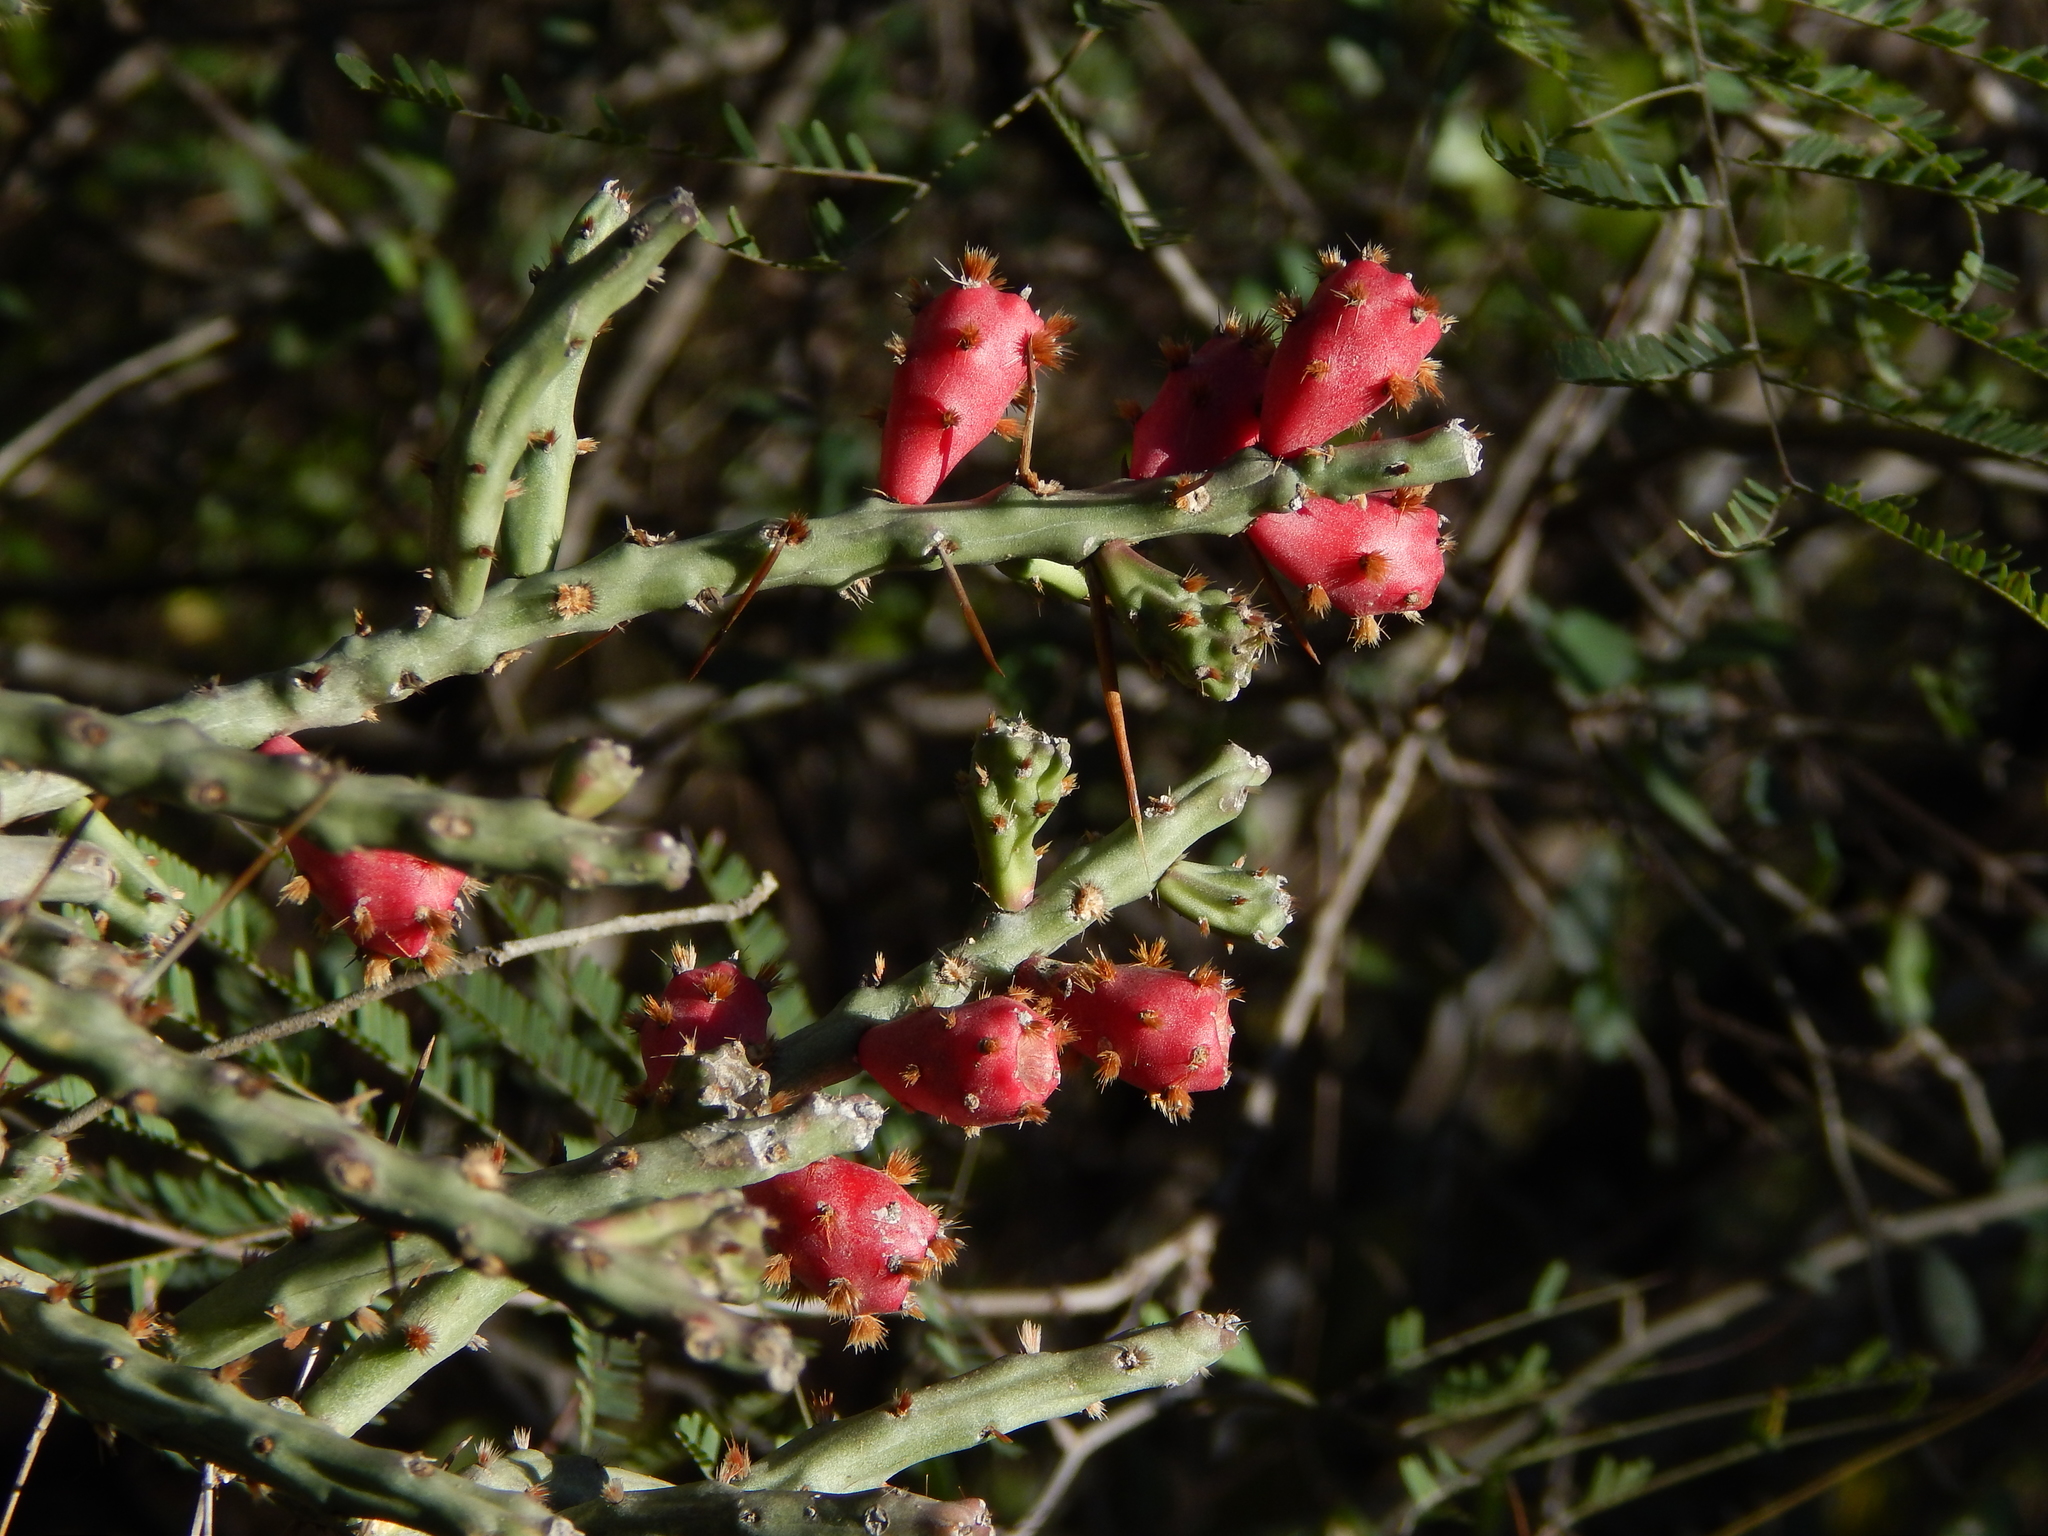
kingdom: Plantae
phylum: Tracheophyta
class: Magnoliopsida
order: Caryophyllales
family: Cactaceae
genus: Cylindropuntia
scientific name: Cylindropuntia leptocaulis
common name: Christmas cactus
